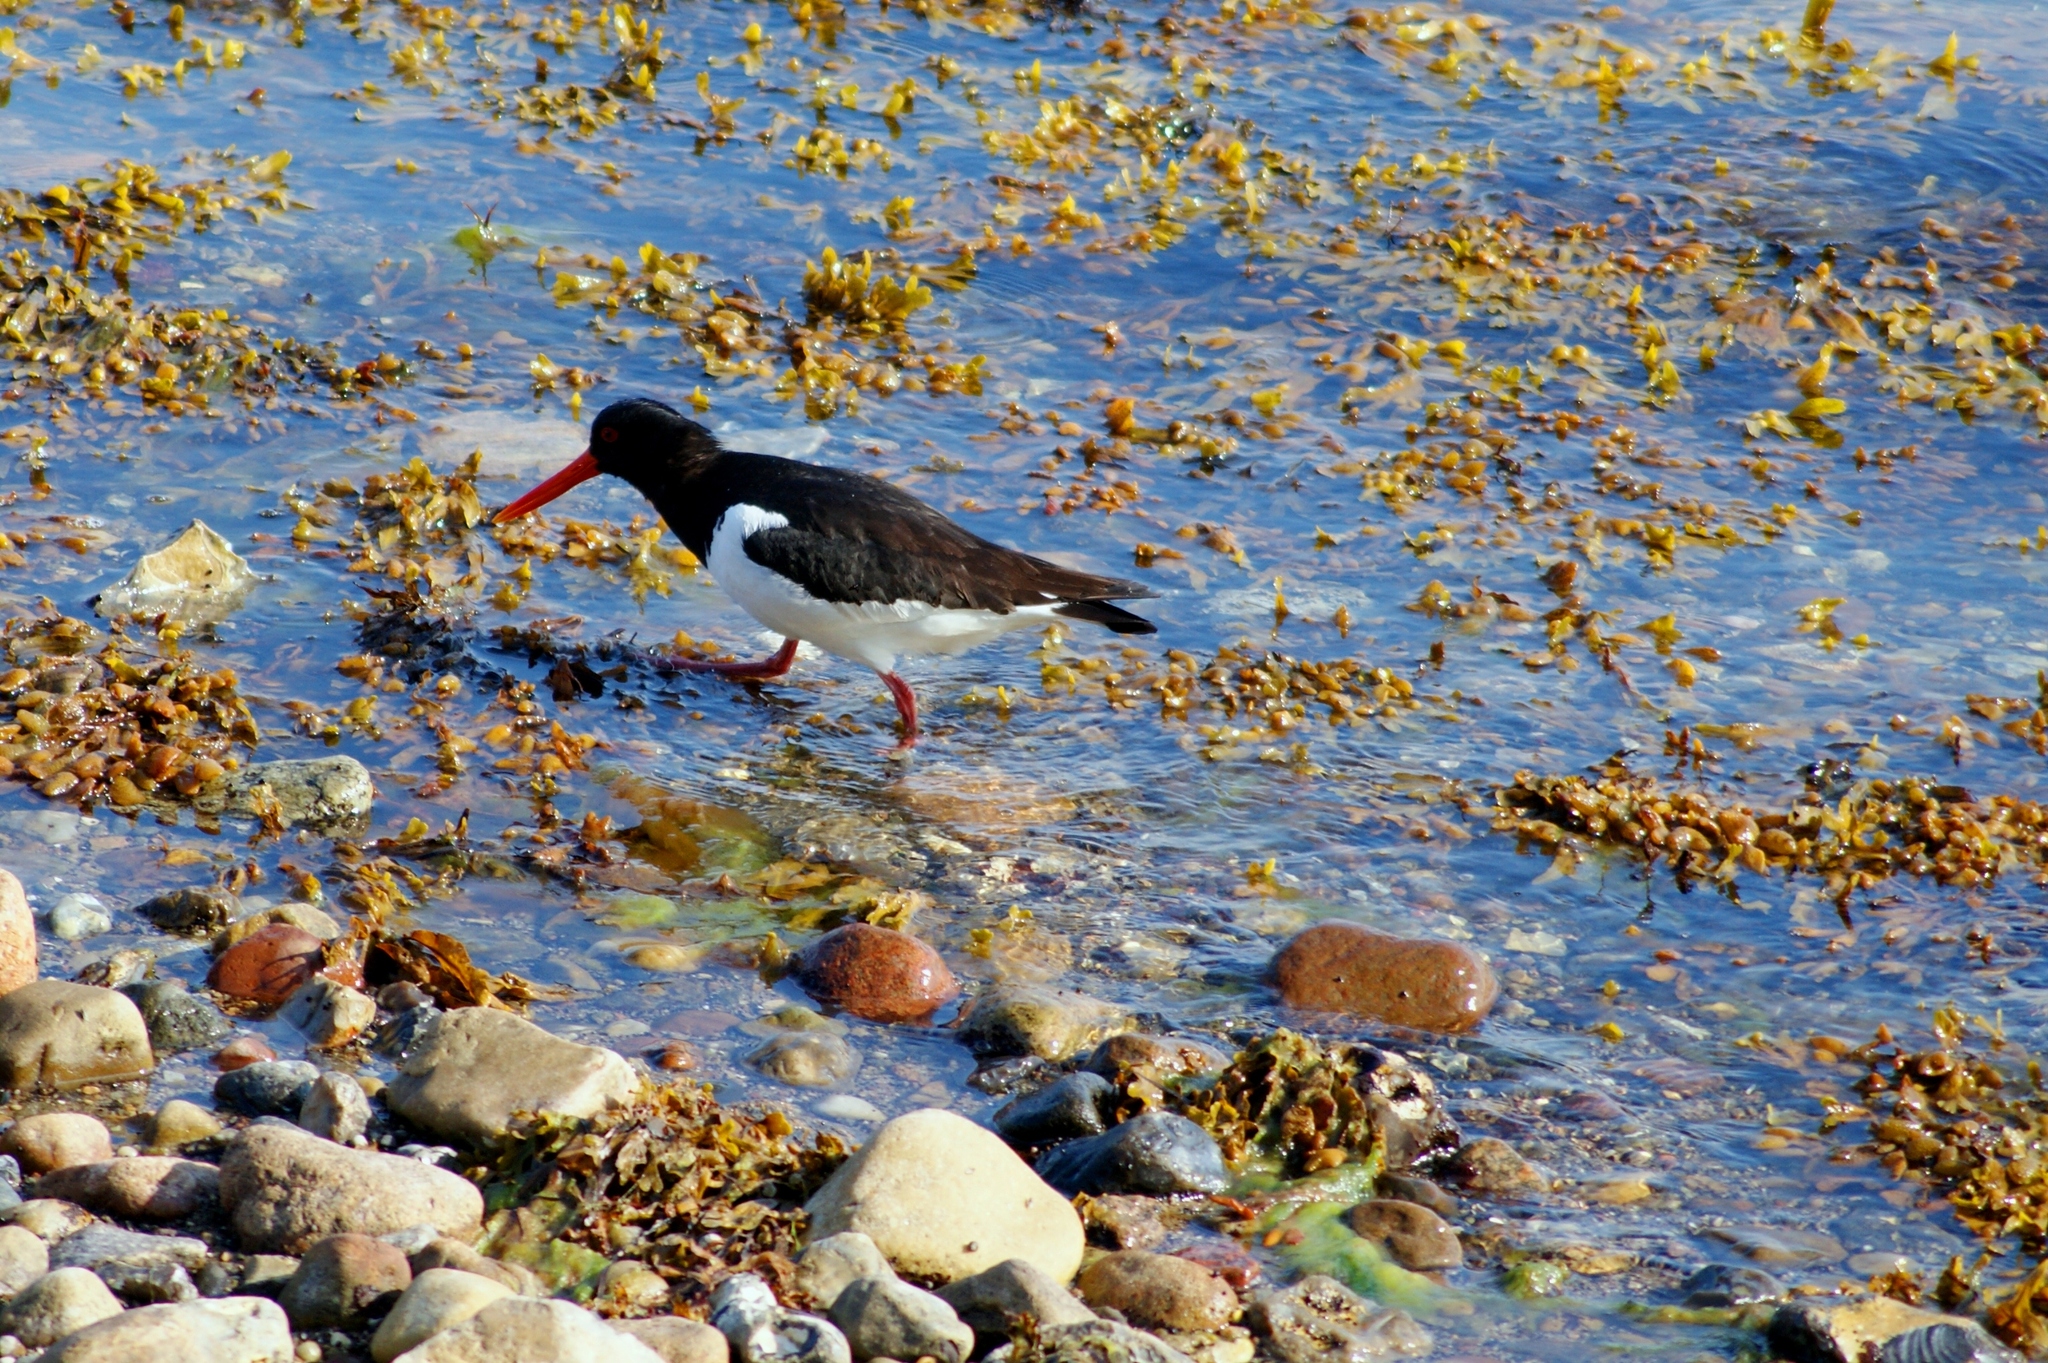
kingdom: Animalia
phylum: Chordata
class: Aves
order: Charadriiformes
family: Haematopodidae
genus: Haematopus
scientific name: Haematopus ostralegus
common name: Eurasian oystercatcher
